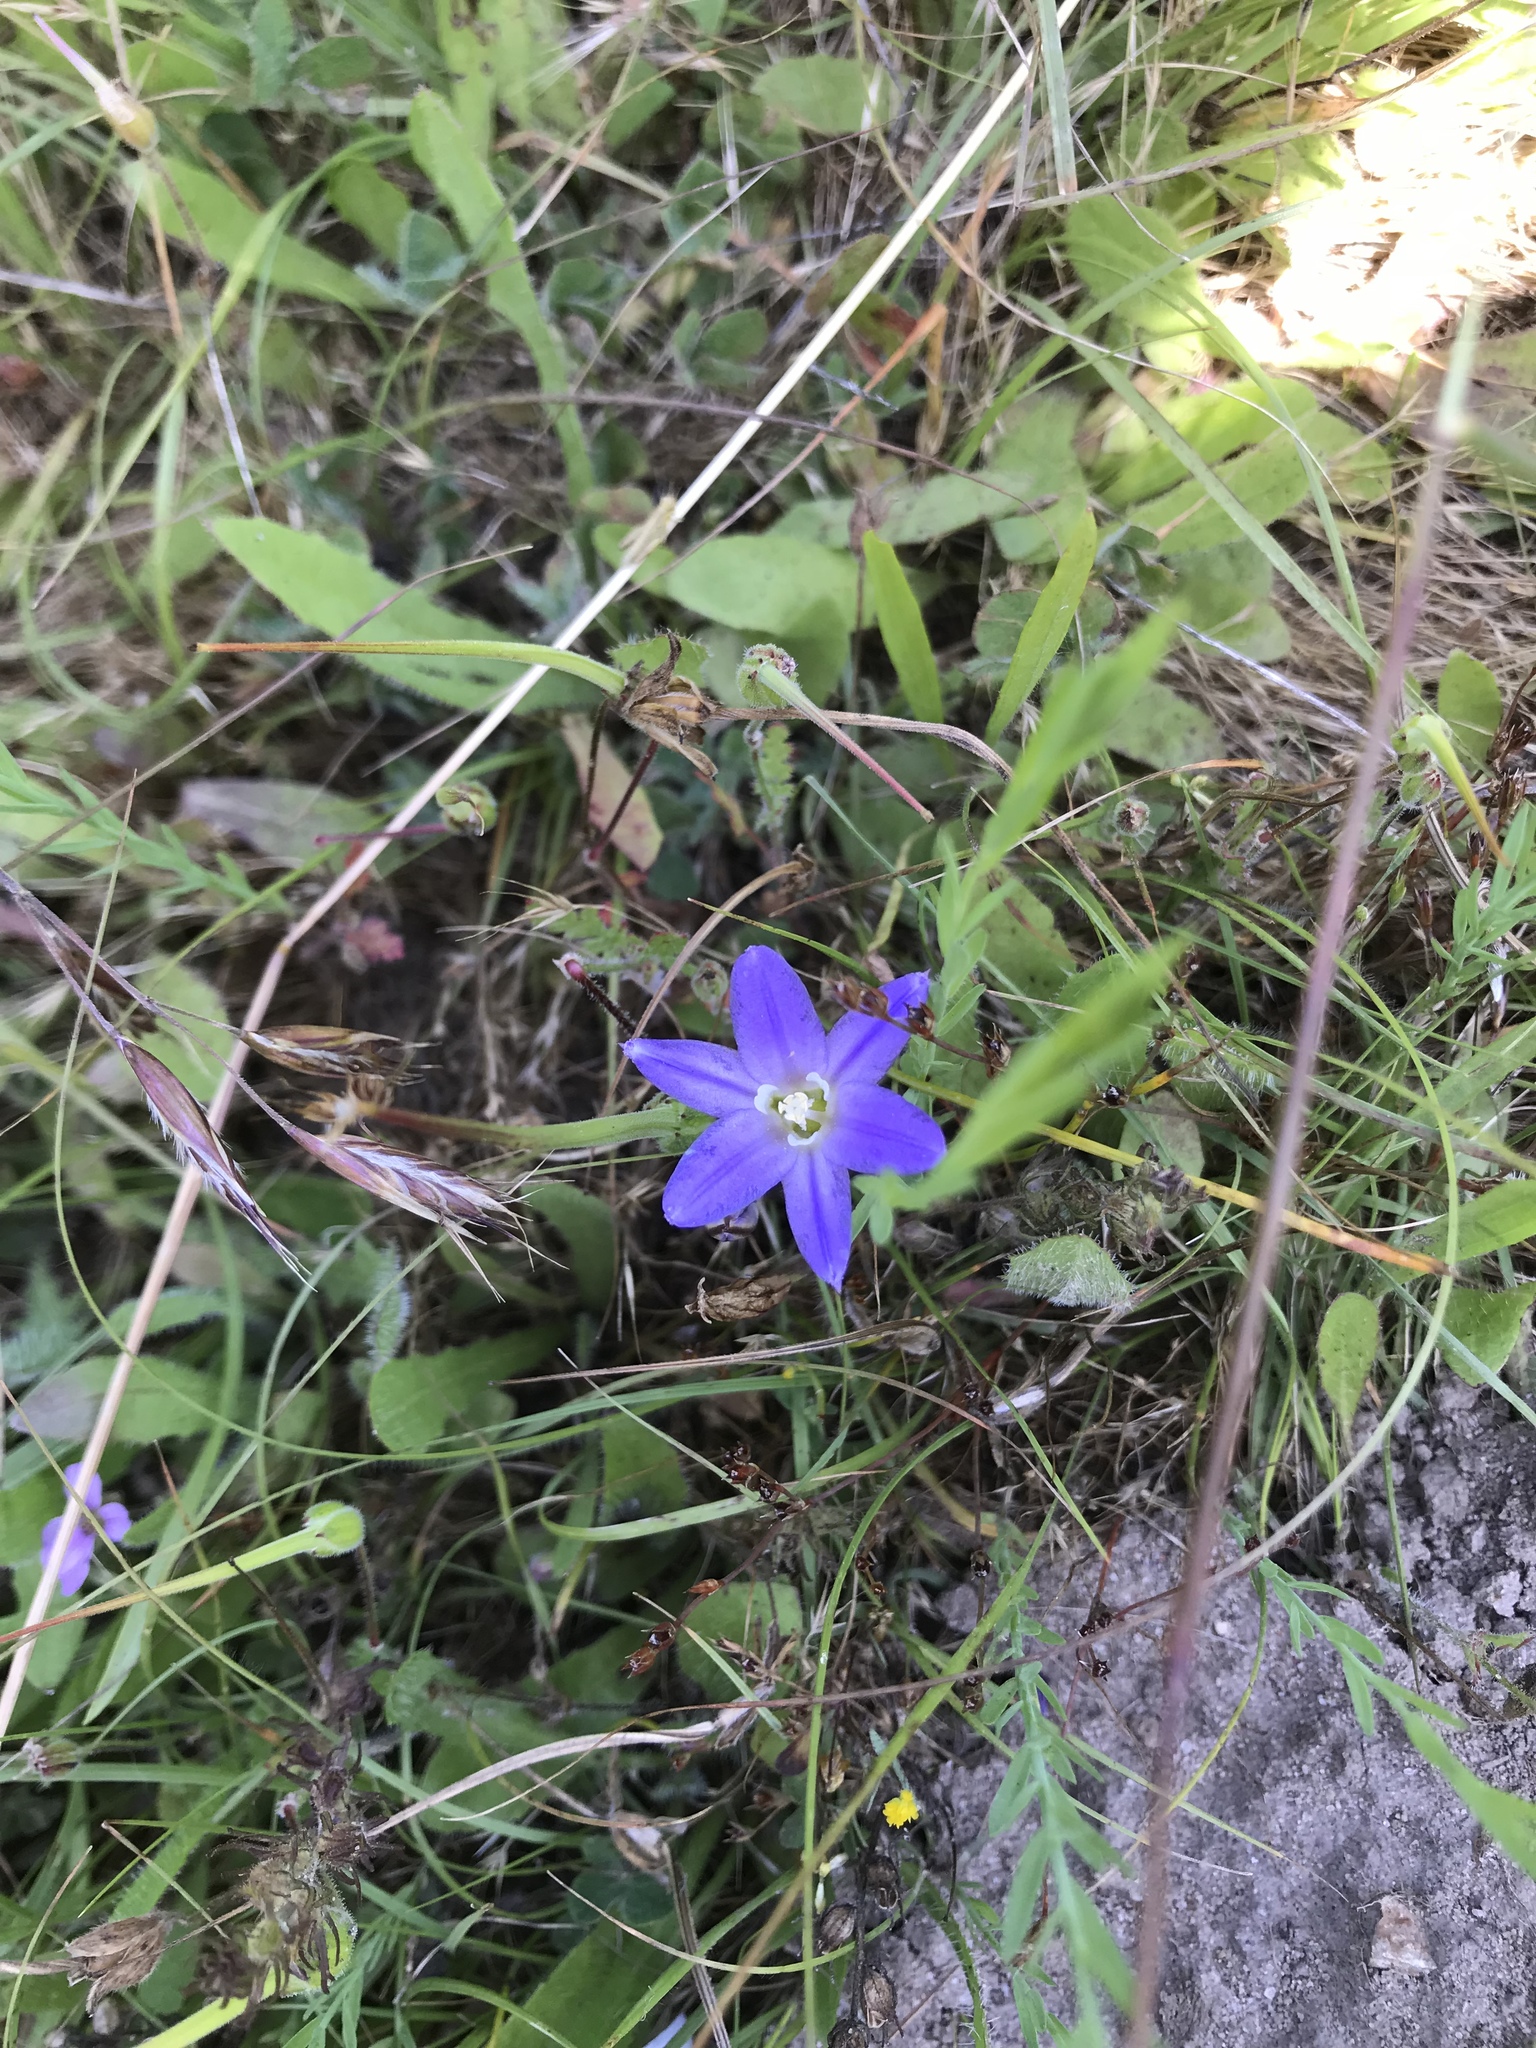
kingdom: Plantae
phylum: Tracheophyta
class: Liliopsida
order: Asparagales
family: Asparagaceae
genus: Brodiaea
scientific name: Brodiaea terrestris
